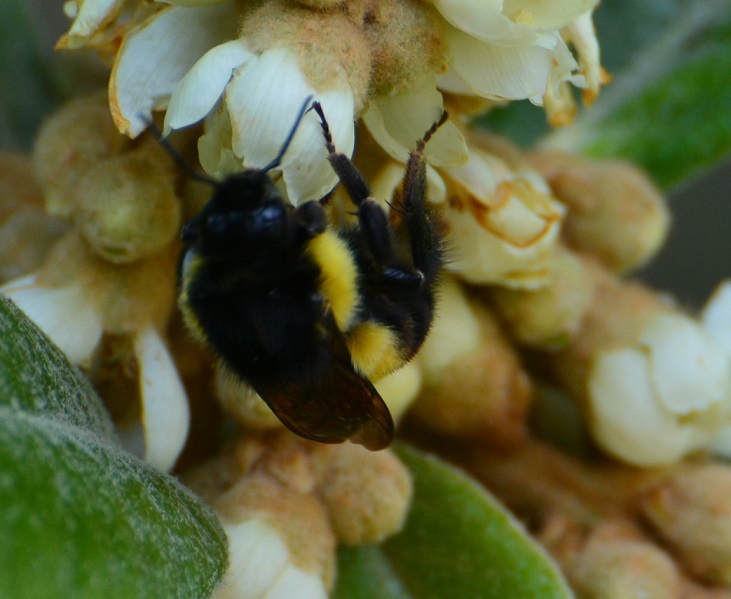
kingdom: Animalia
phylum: Arthropoda
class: Insecta
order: Hymenoptera
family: Apidae
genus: Bombus
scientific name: Bombus ephippiatus
